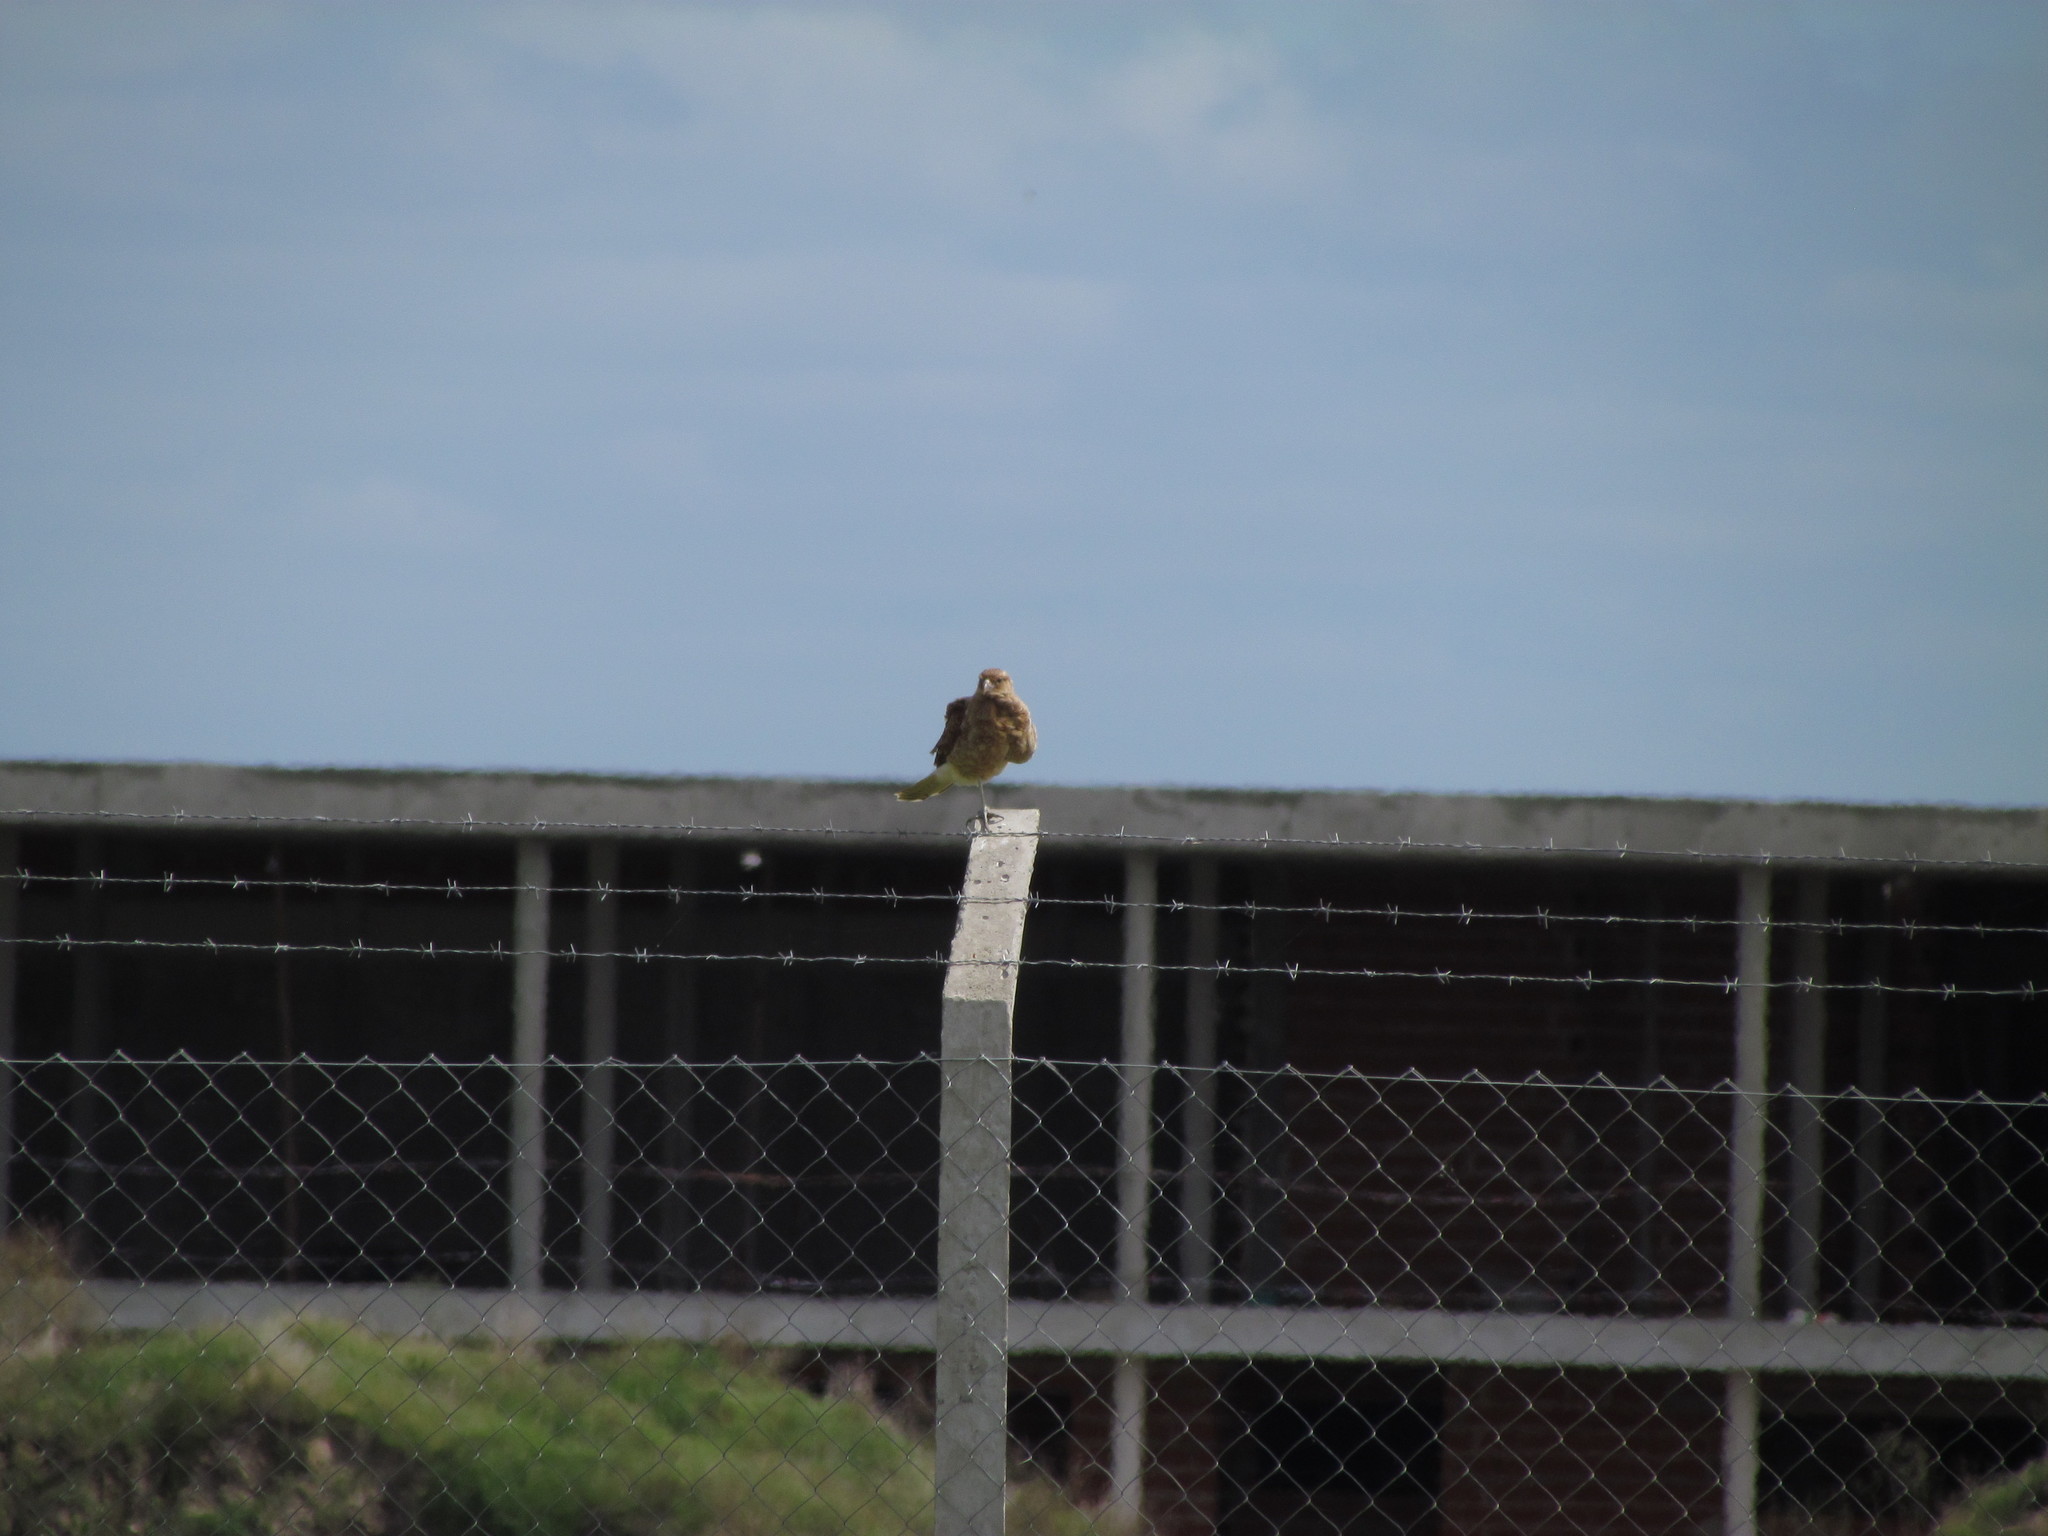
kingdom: Animalia
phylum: Chordata
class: Aves
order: Falconiformes
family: Falconidae
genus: Daptrius
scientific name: Daptrius
